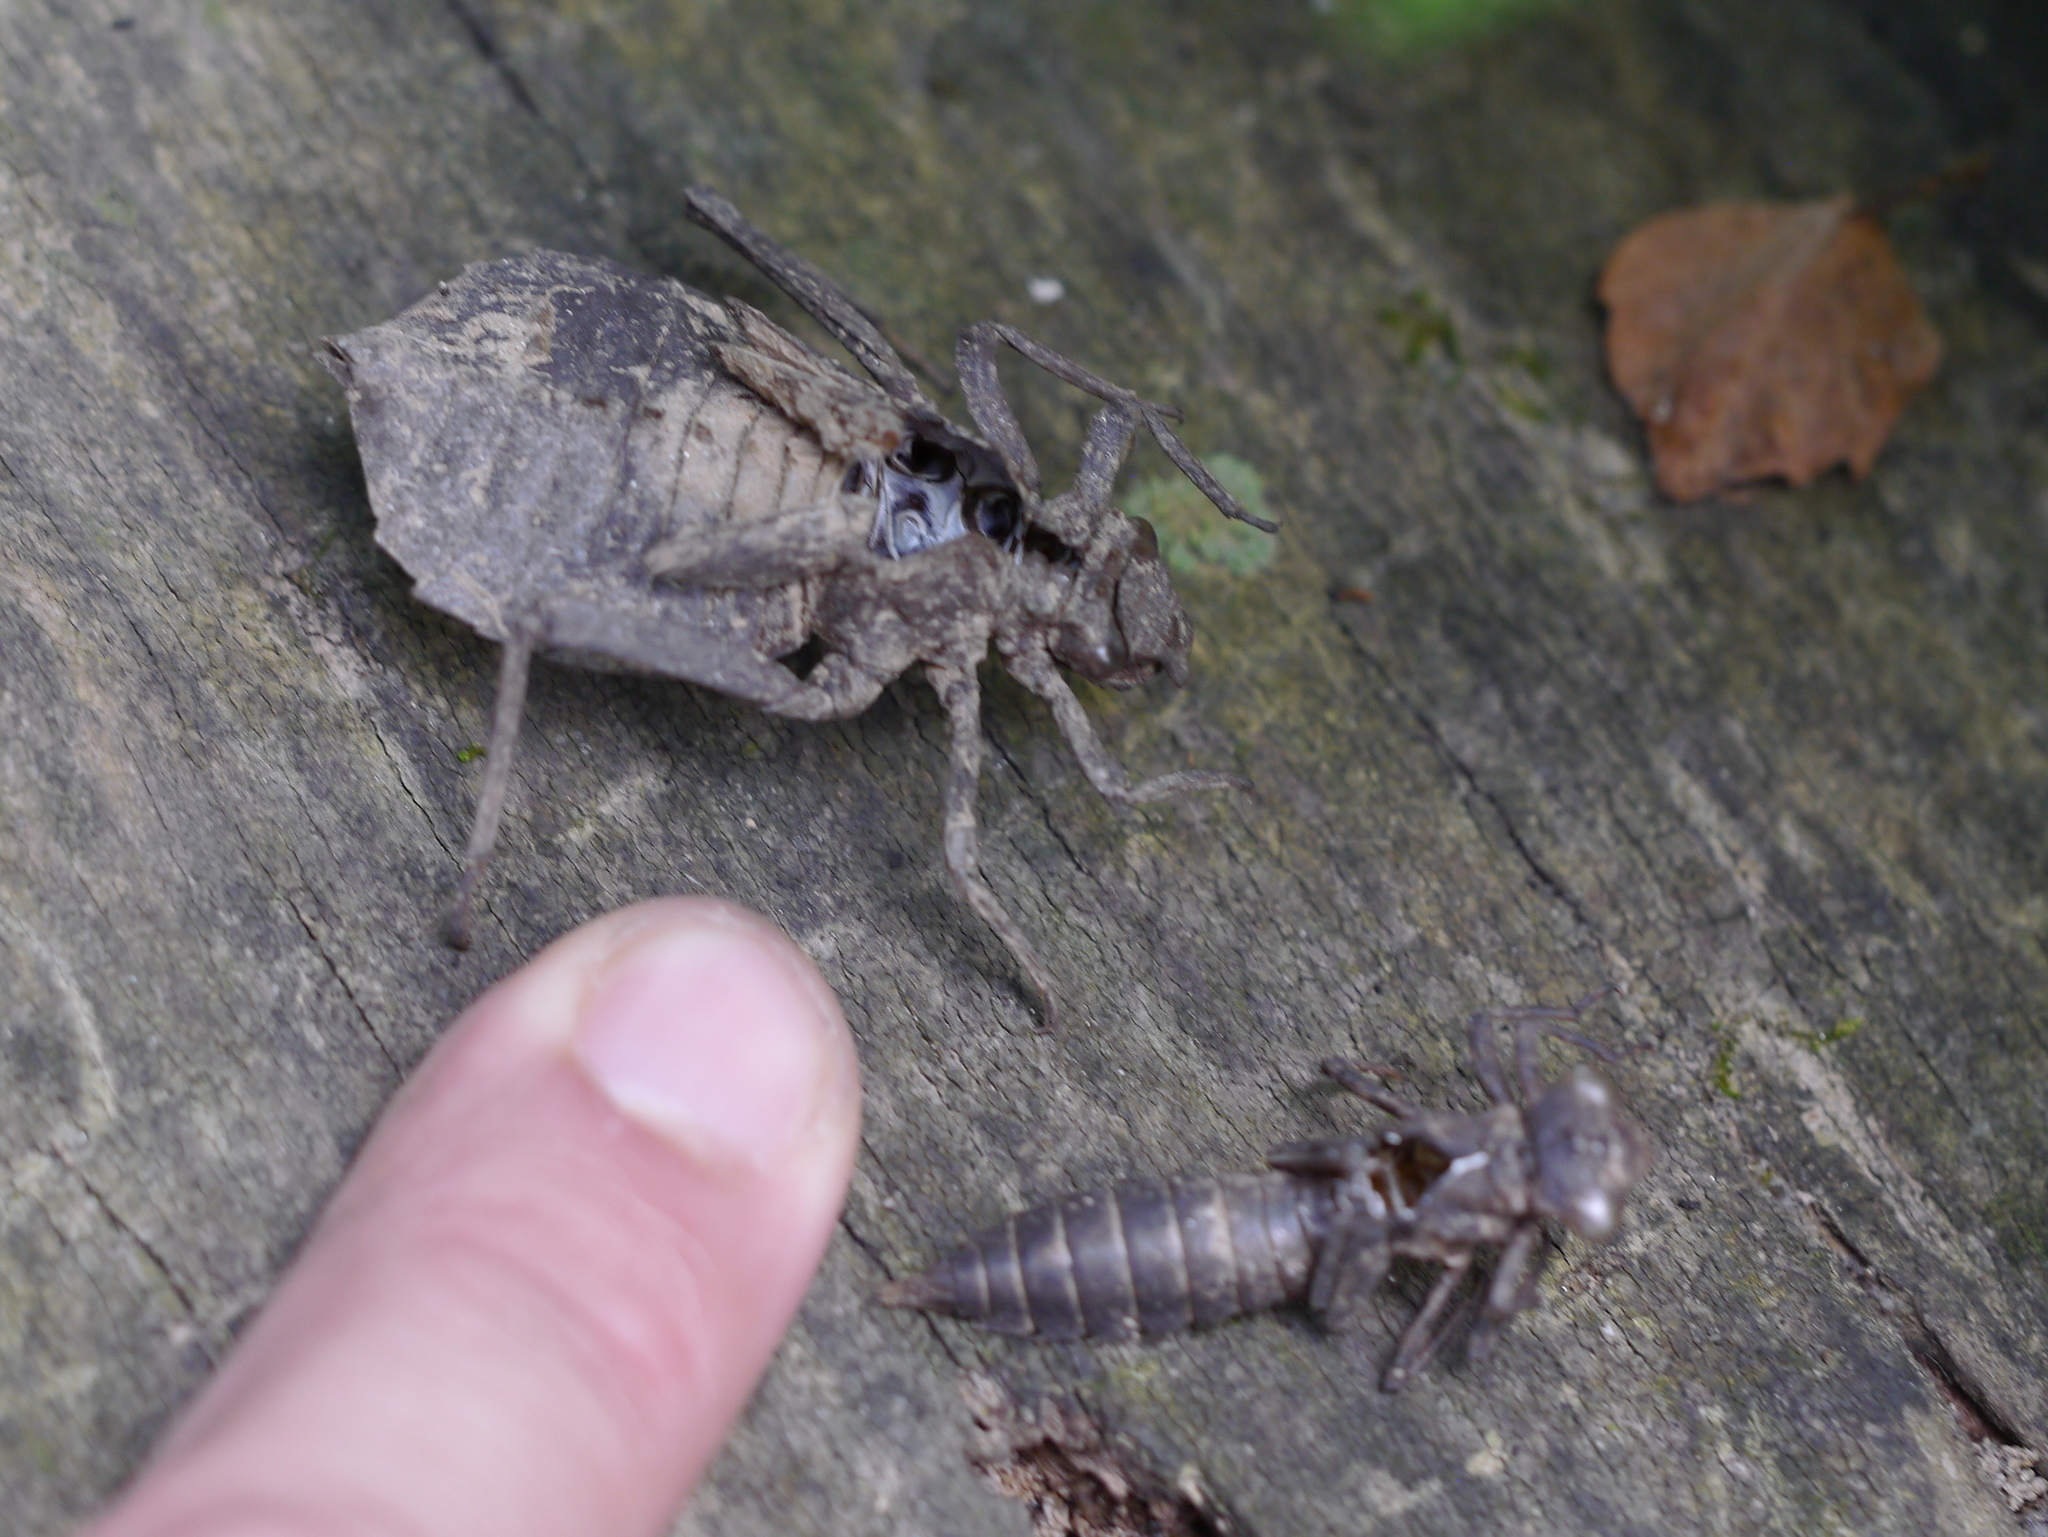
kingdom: Animalia
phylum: Arthropoda
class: Insecta
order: Odonata
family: Gomphidae
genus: Hagenius
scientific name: Hagenius brevistylus
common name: Dragonhunter
